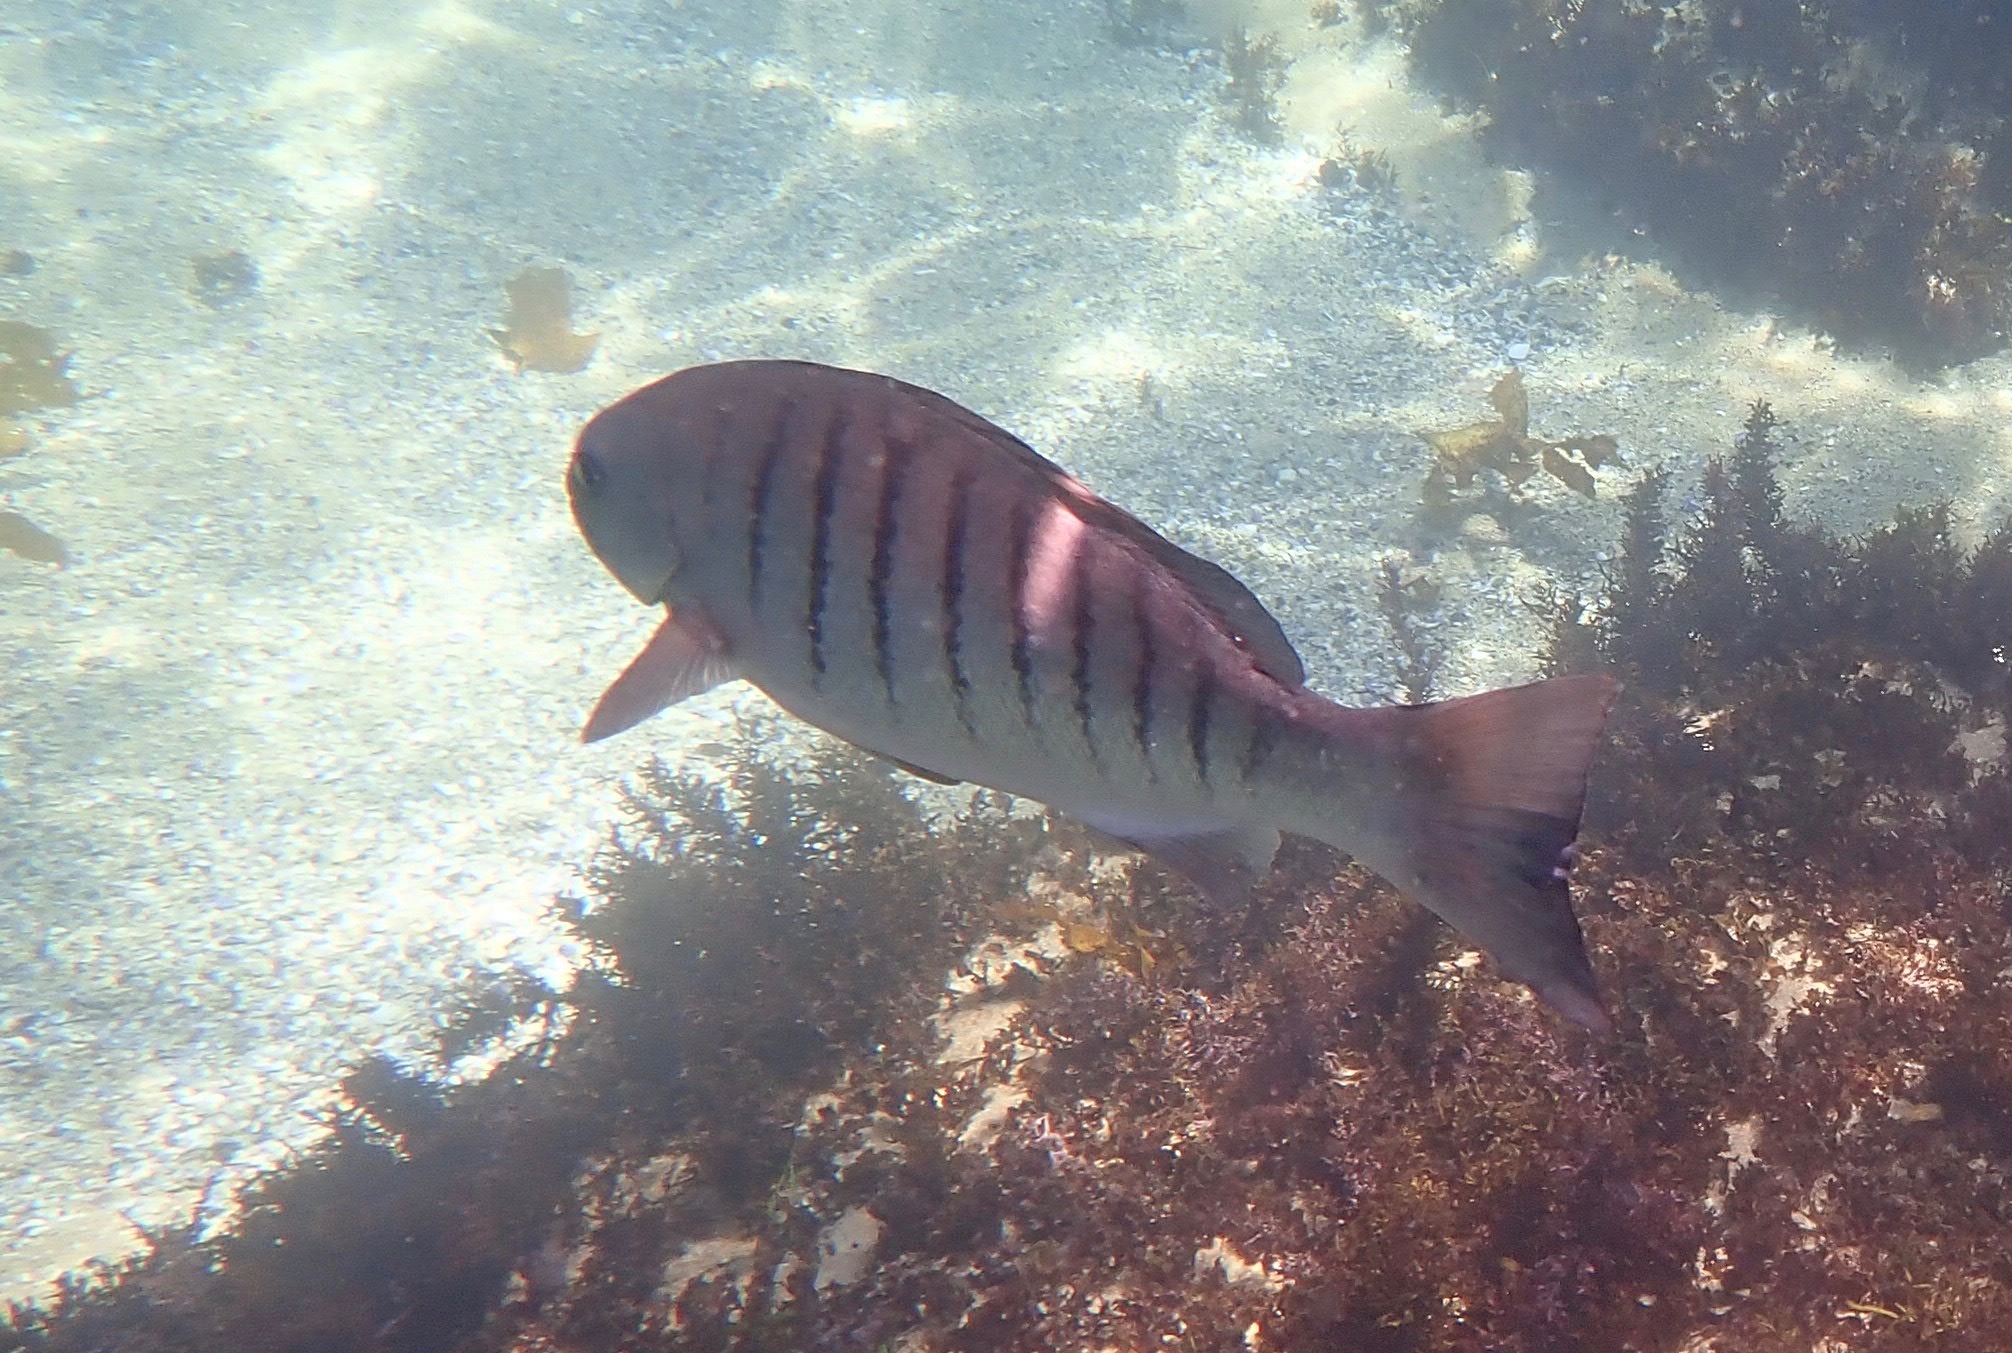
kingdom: Animalia
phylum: Chordata
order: Perciformes
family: Kyphosidae
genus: Girella
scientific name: Girella tricuspidata
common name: Parore
